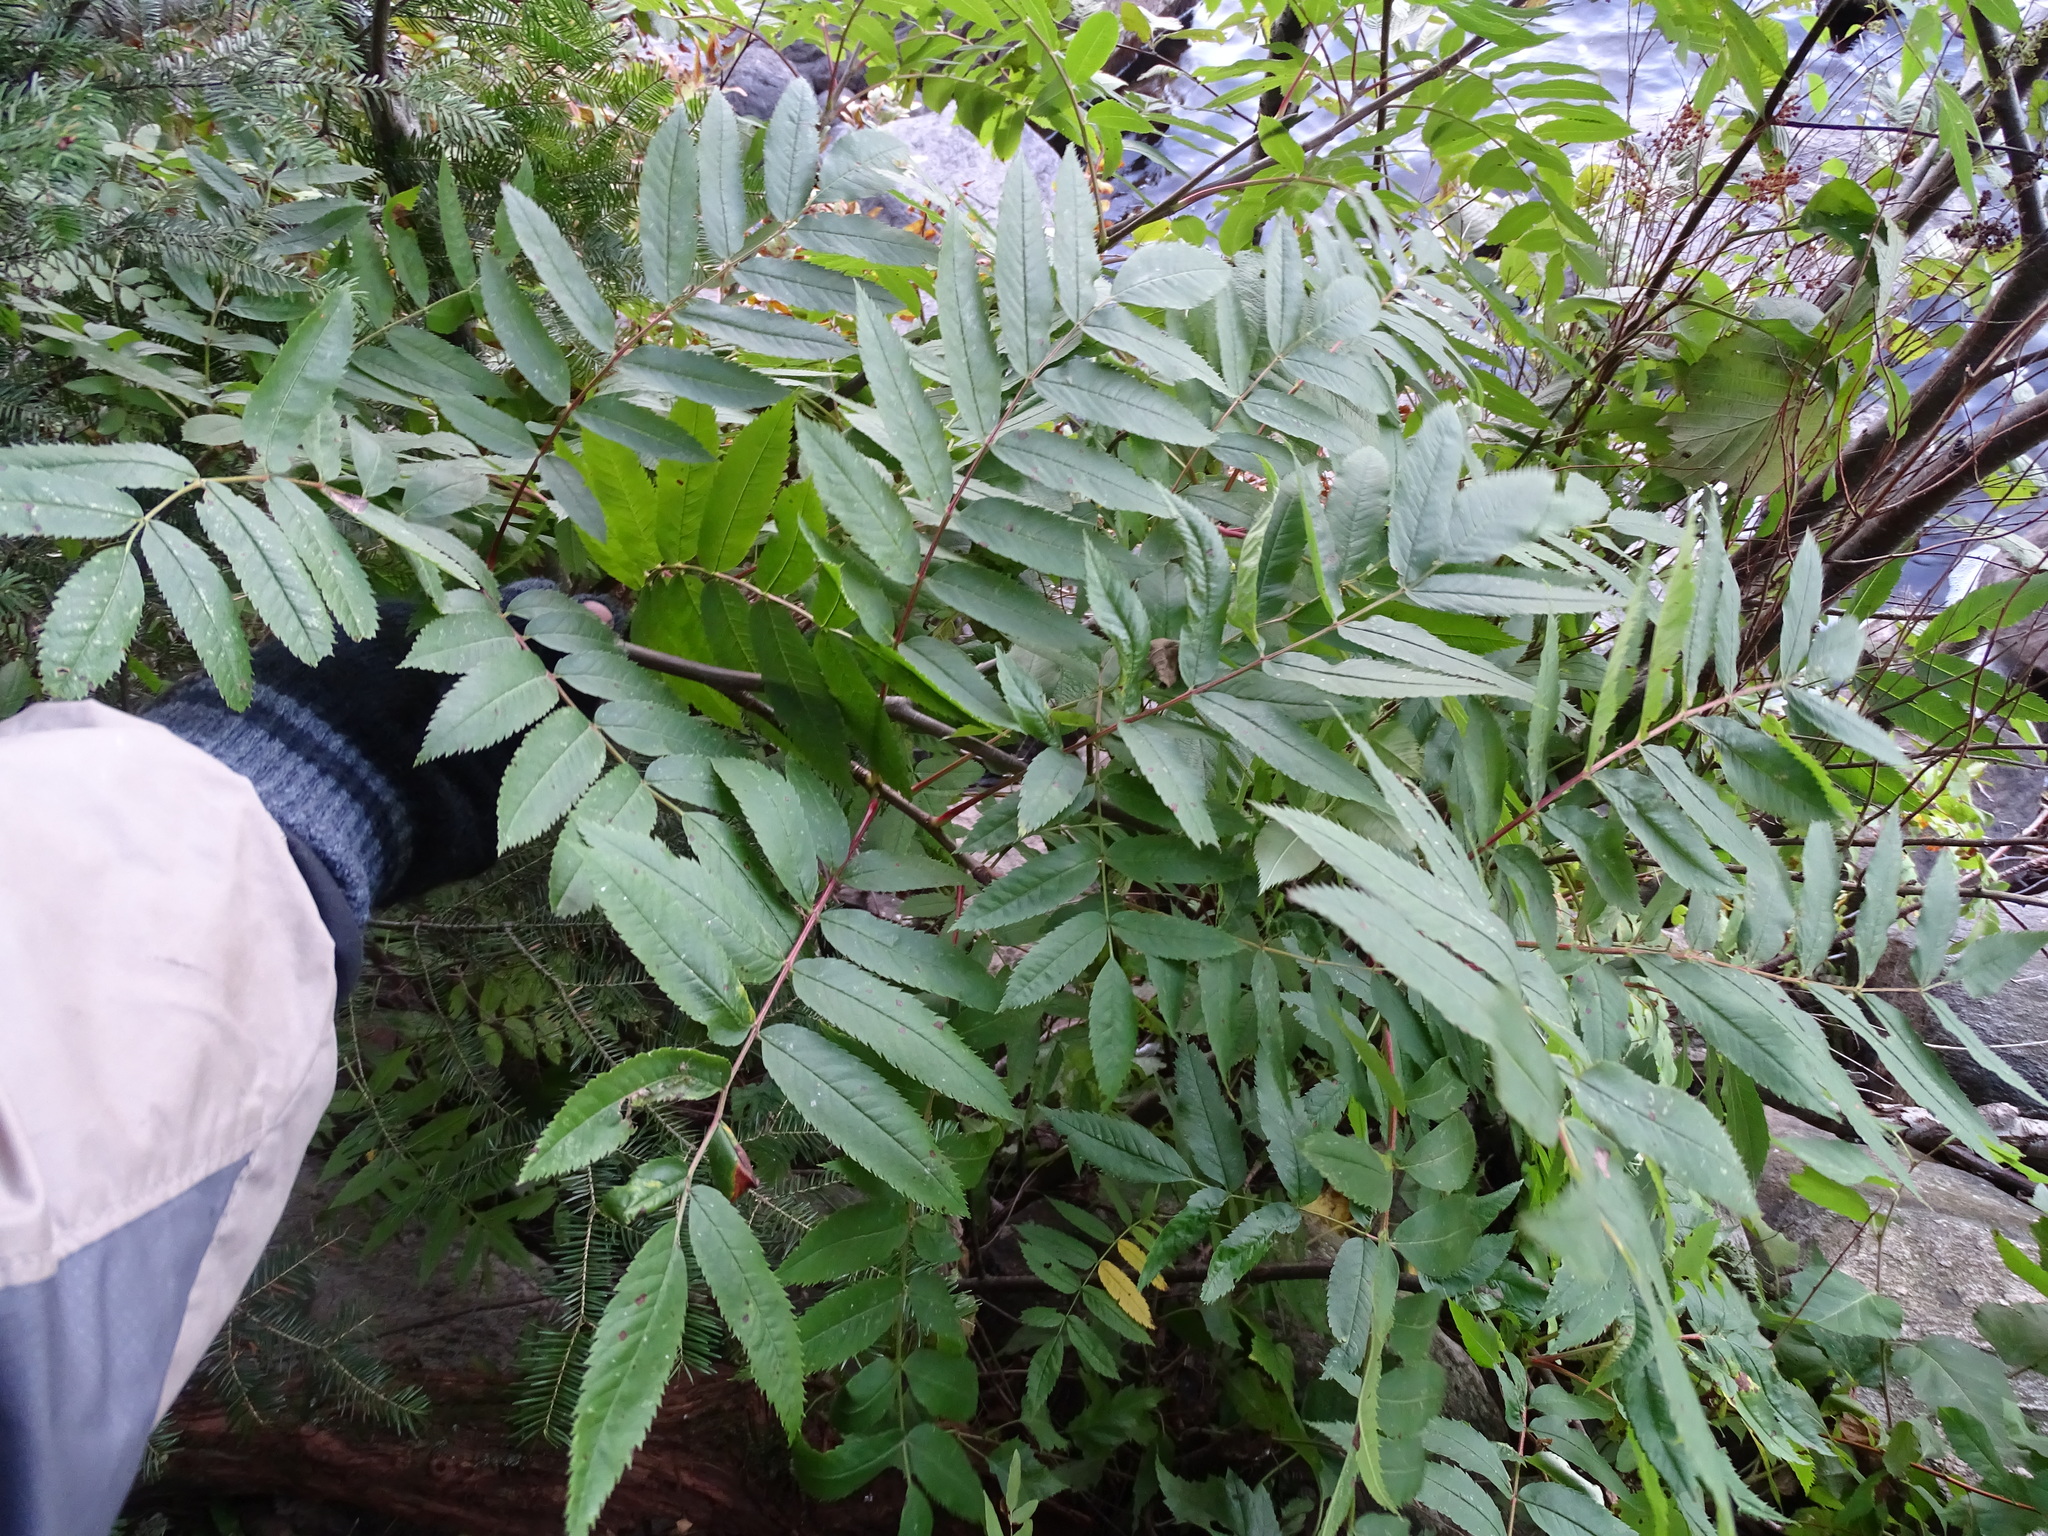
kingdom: Plantae
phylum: Tracheophyta
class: Magnoliopsida
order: Rosales
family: Rosaceae
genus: Sorbus
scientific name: Sorbus decora
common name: Northern mountain-ash
